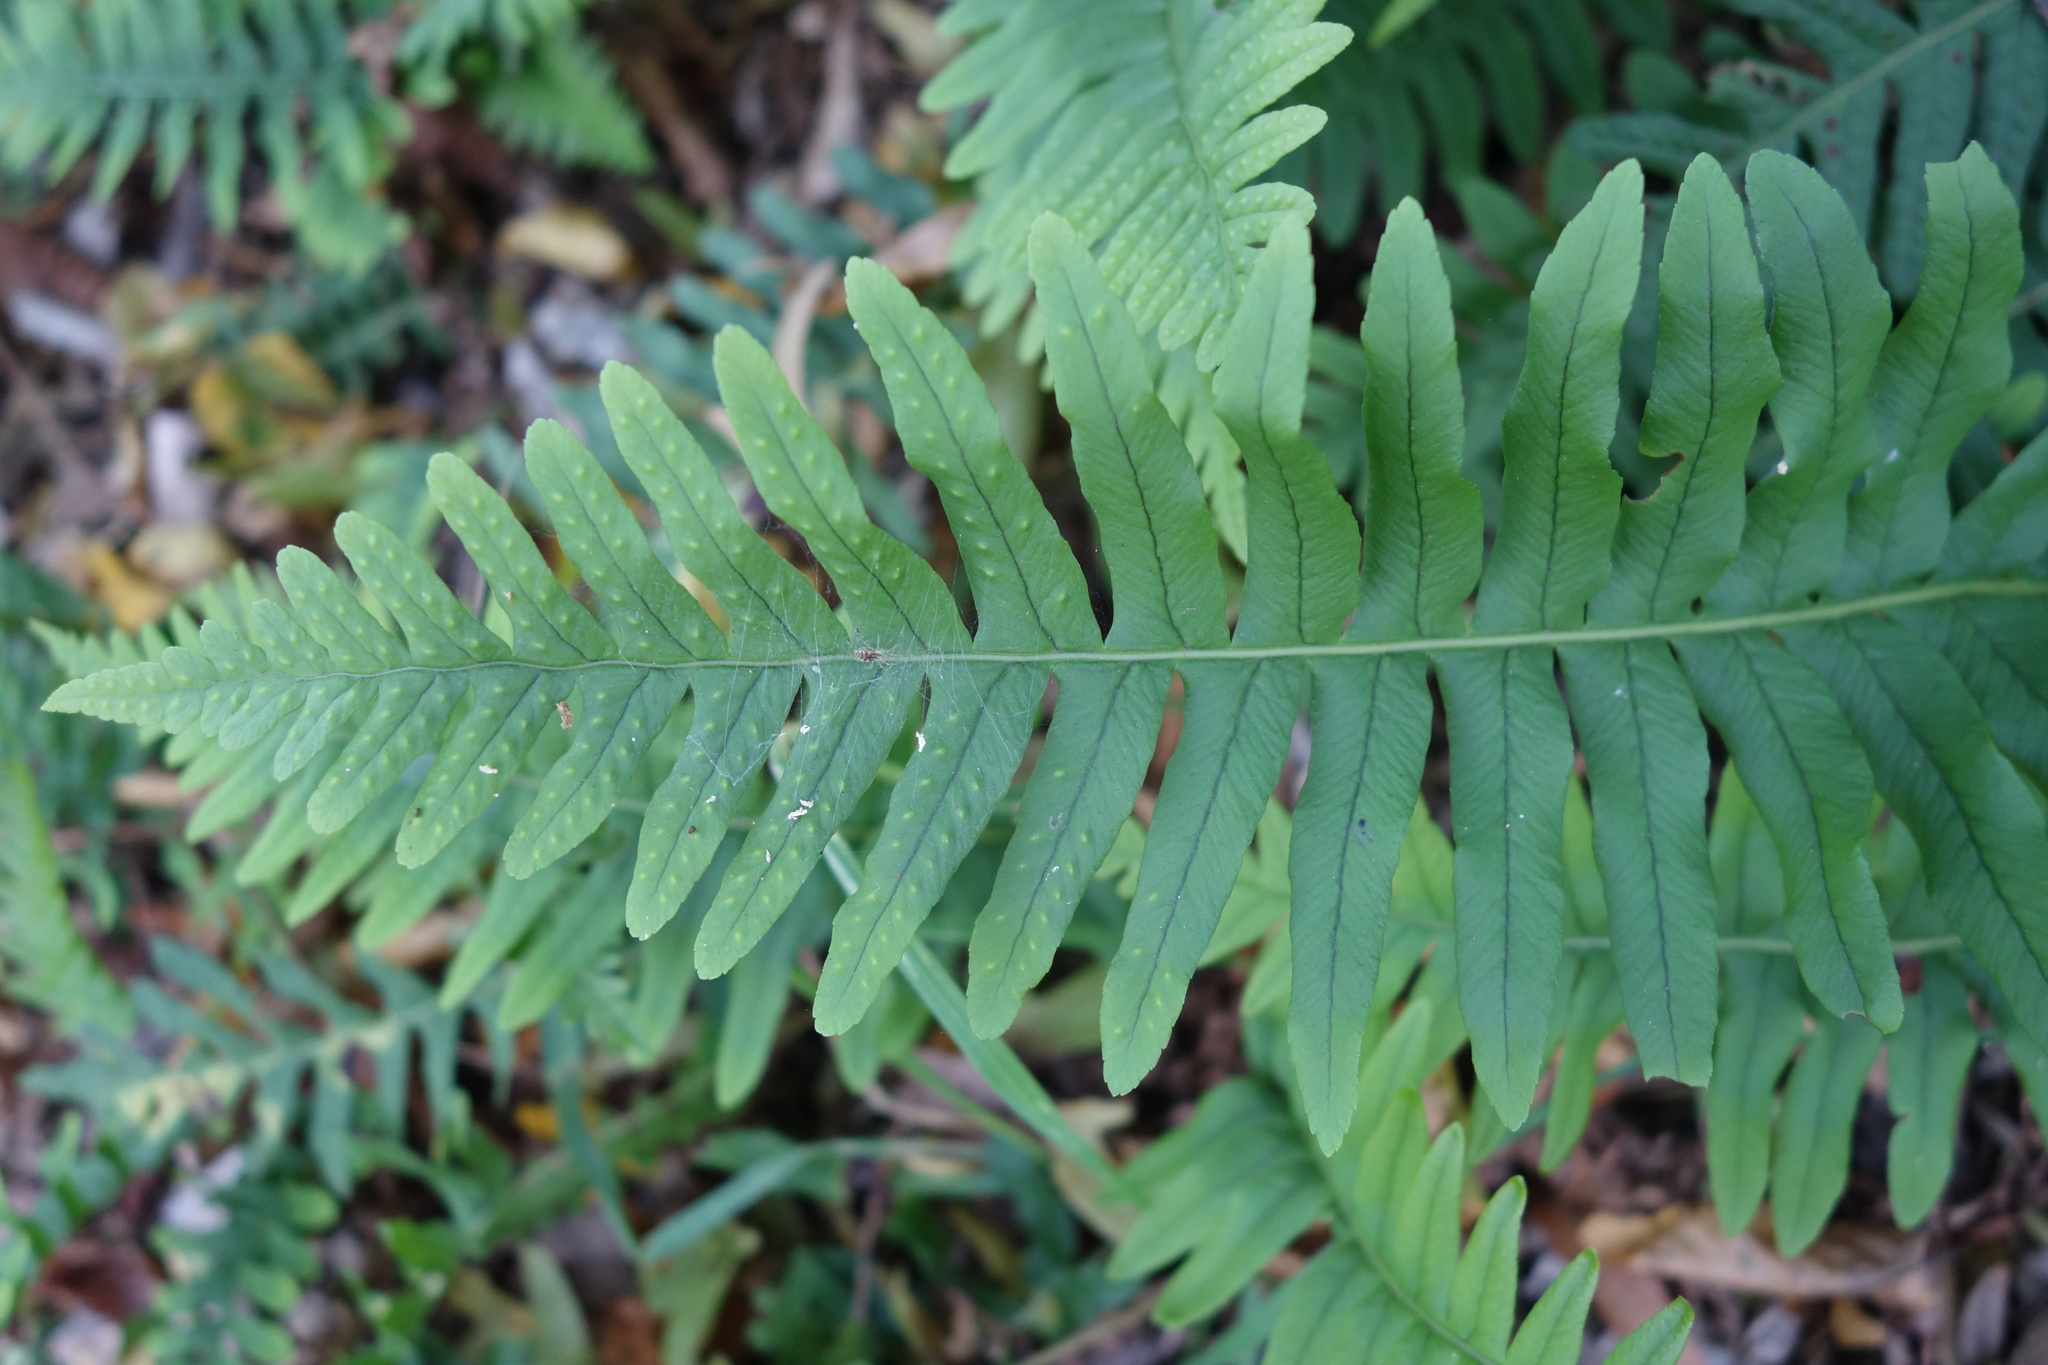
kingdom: Plantae
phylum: Tracheophyta
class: Polypodiopsida
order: Polypodiales
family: Polypodiaceae
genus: Polypodium
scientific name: Polypodium vulgare
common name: Common polypody
